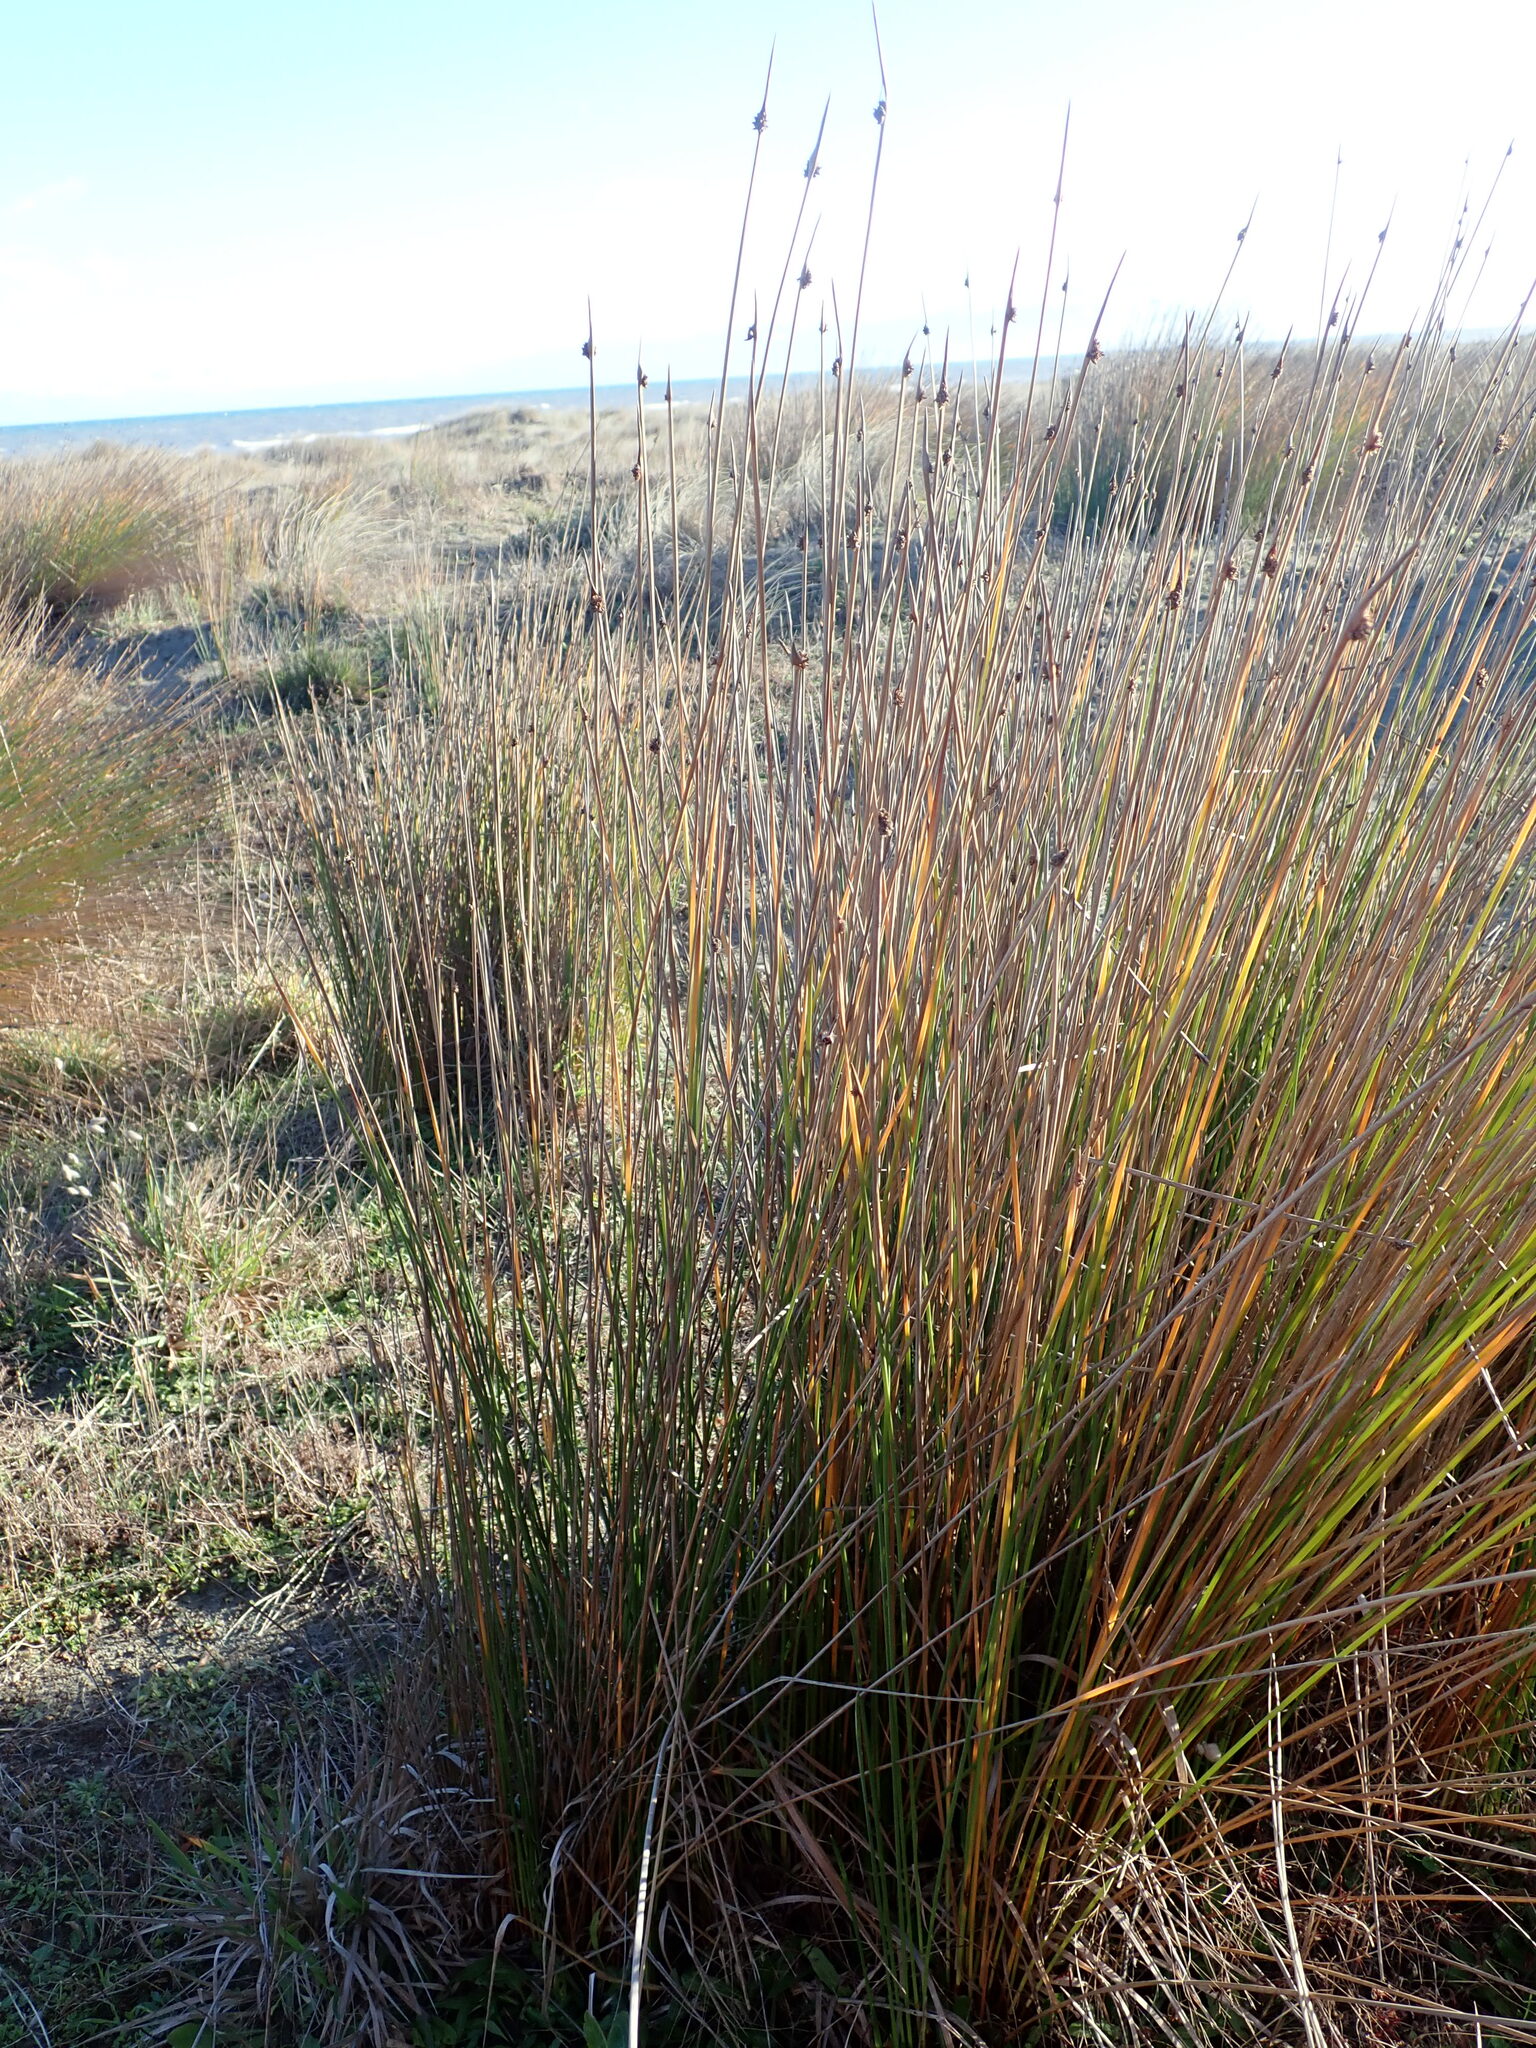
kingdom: Plantae
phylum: Tracheophyta
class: Liliopsida
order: Poales
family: Cyperaceae
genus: Ficinia
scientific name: Ficinia nodosa
